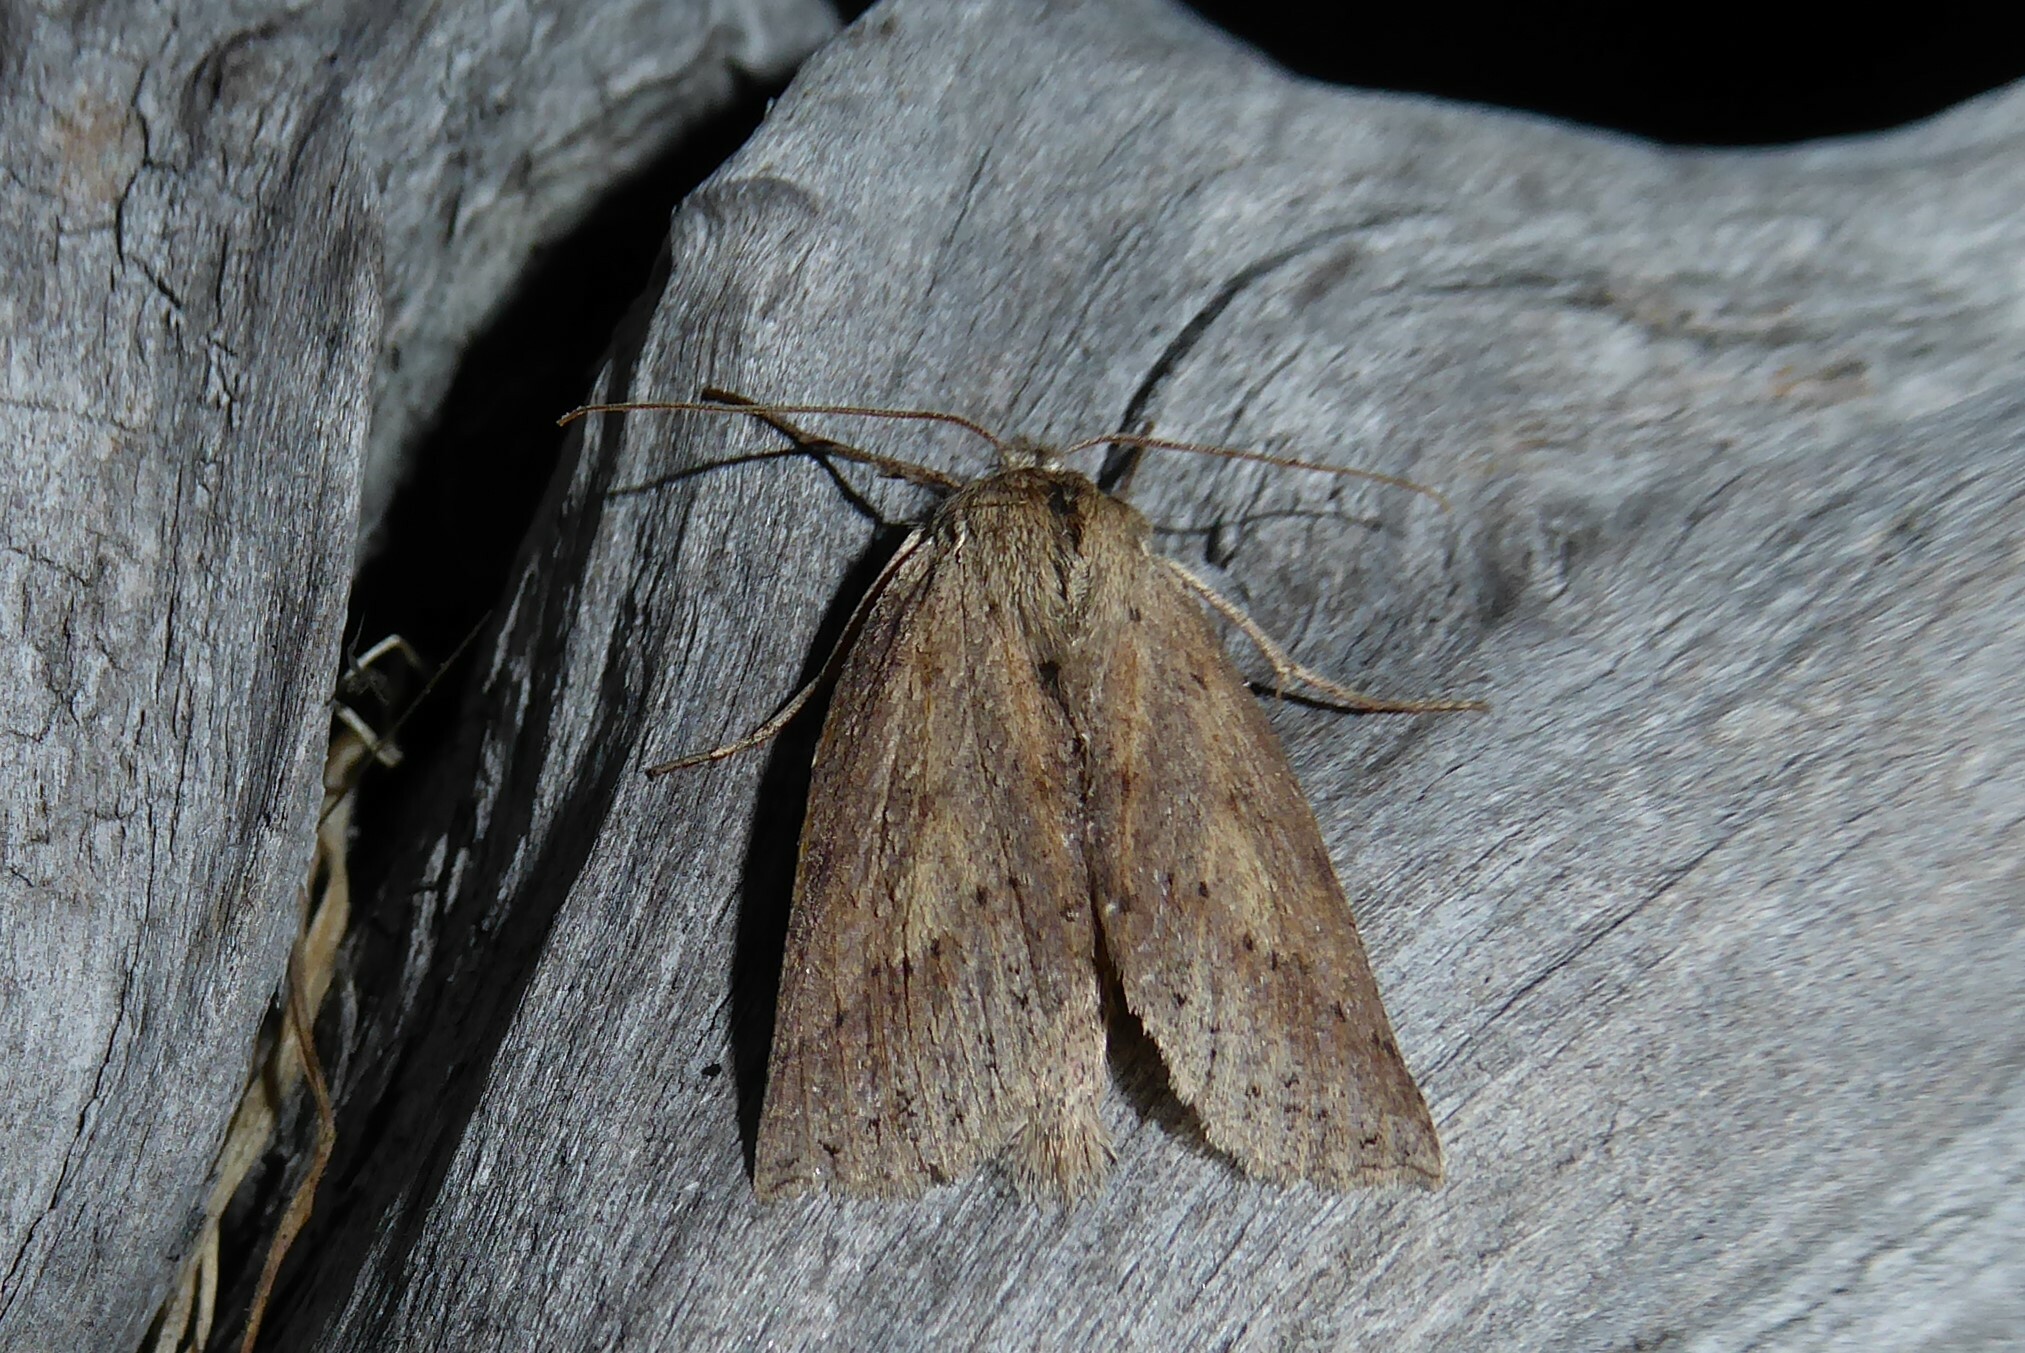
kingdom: Animalia
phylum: Arthropoda
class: Insecta
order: Lepidoptera
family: Geometridae
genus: Declana
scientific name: Declana leptomera
